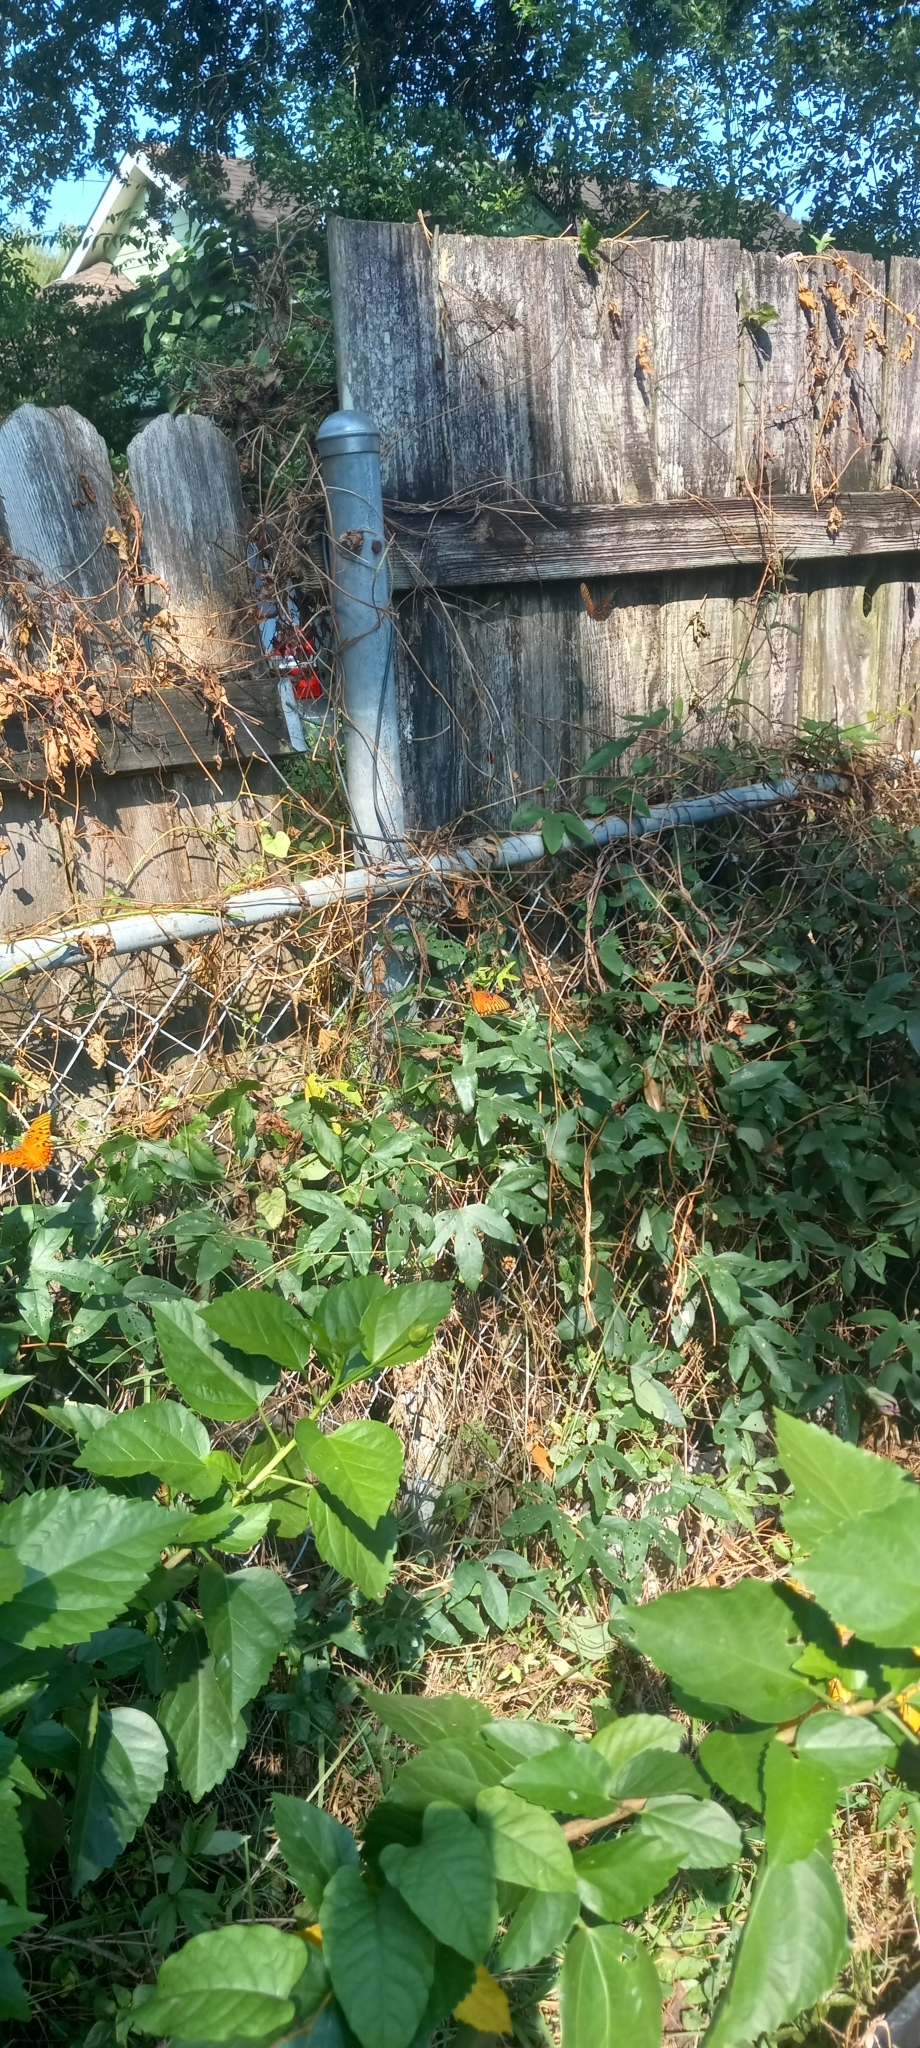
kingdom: Animalia
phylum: Arthropoda
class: Insecta
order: Lepidoptera
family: Nymphalidae
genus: Dione
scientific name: Dione vanillae
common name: Gulf fritillary
